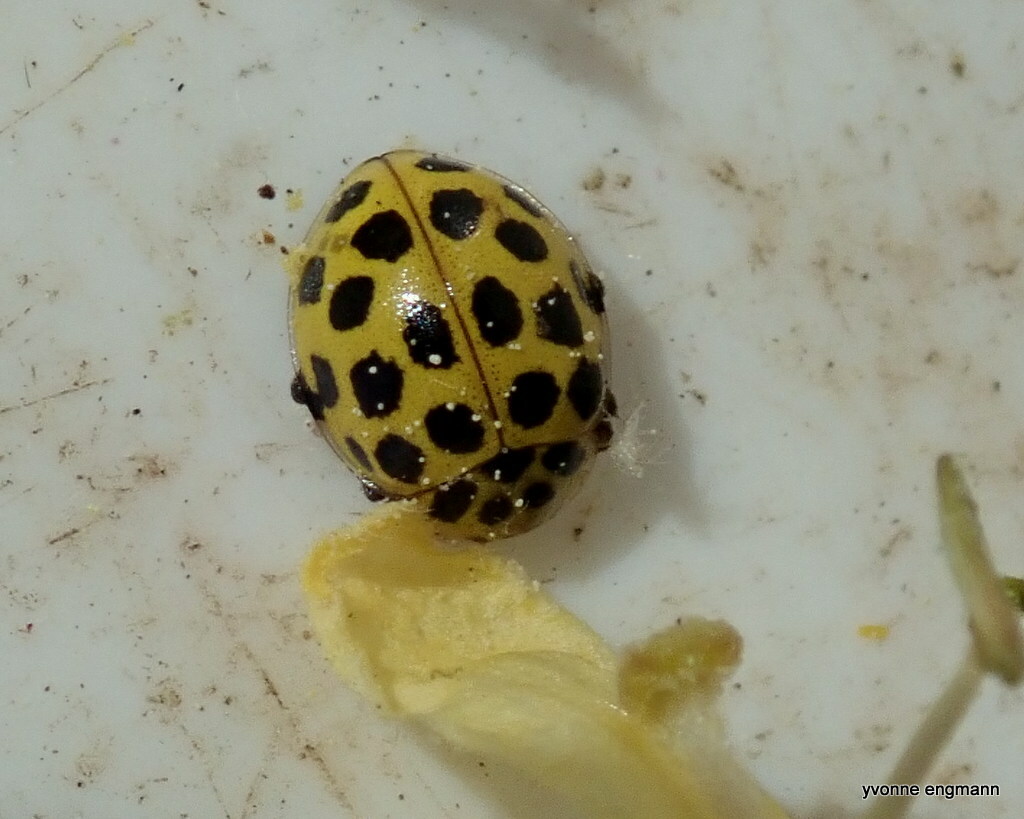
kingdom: Animalia
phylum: Arthropoda
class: Insecta
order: Coleoptera
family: Coccinellidae
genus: Psyllobora
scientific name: Psyllobora vigintiduopunctata
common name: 22-spot ladybird
